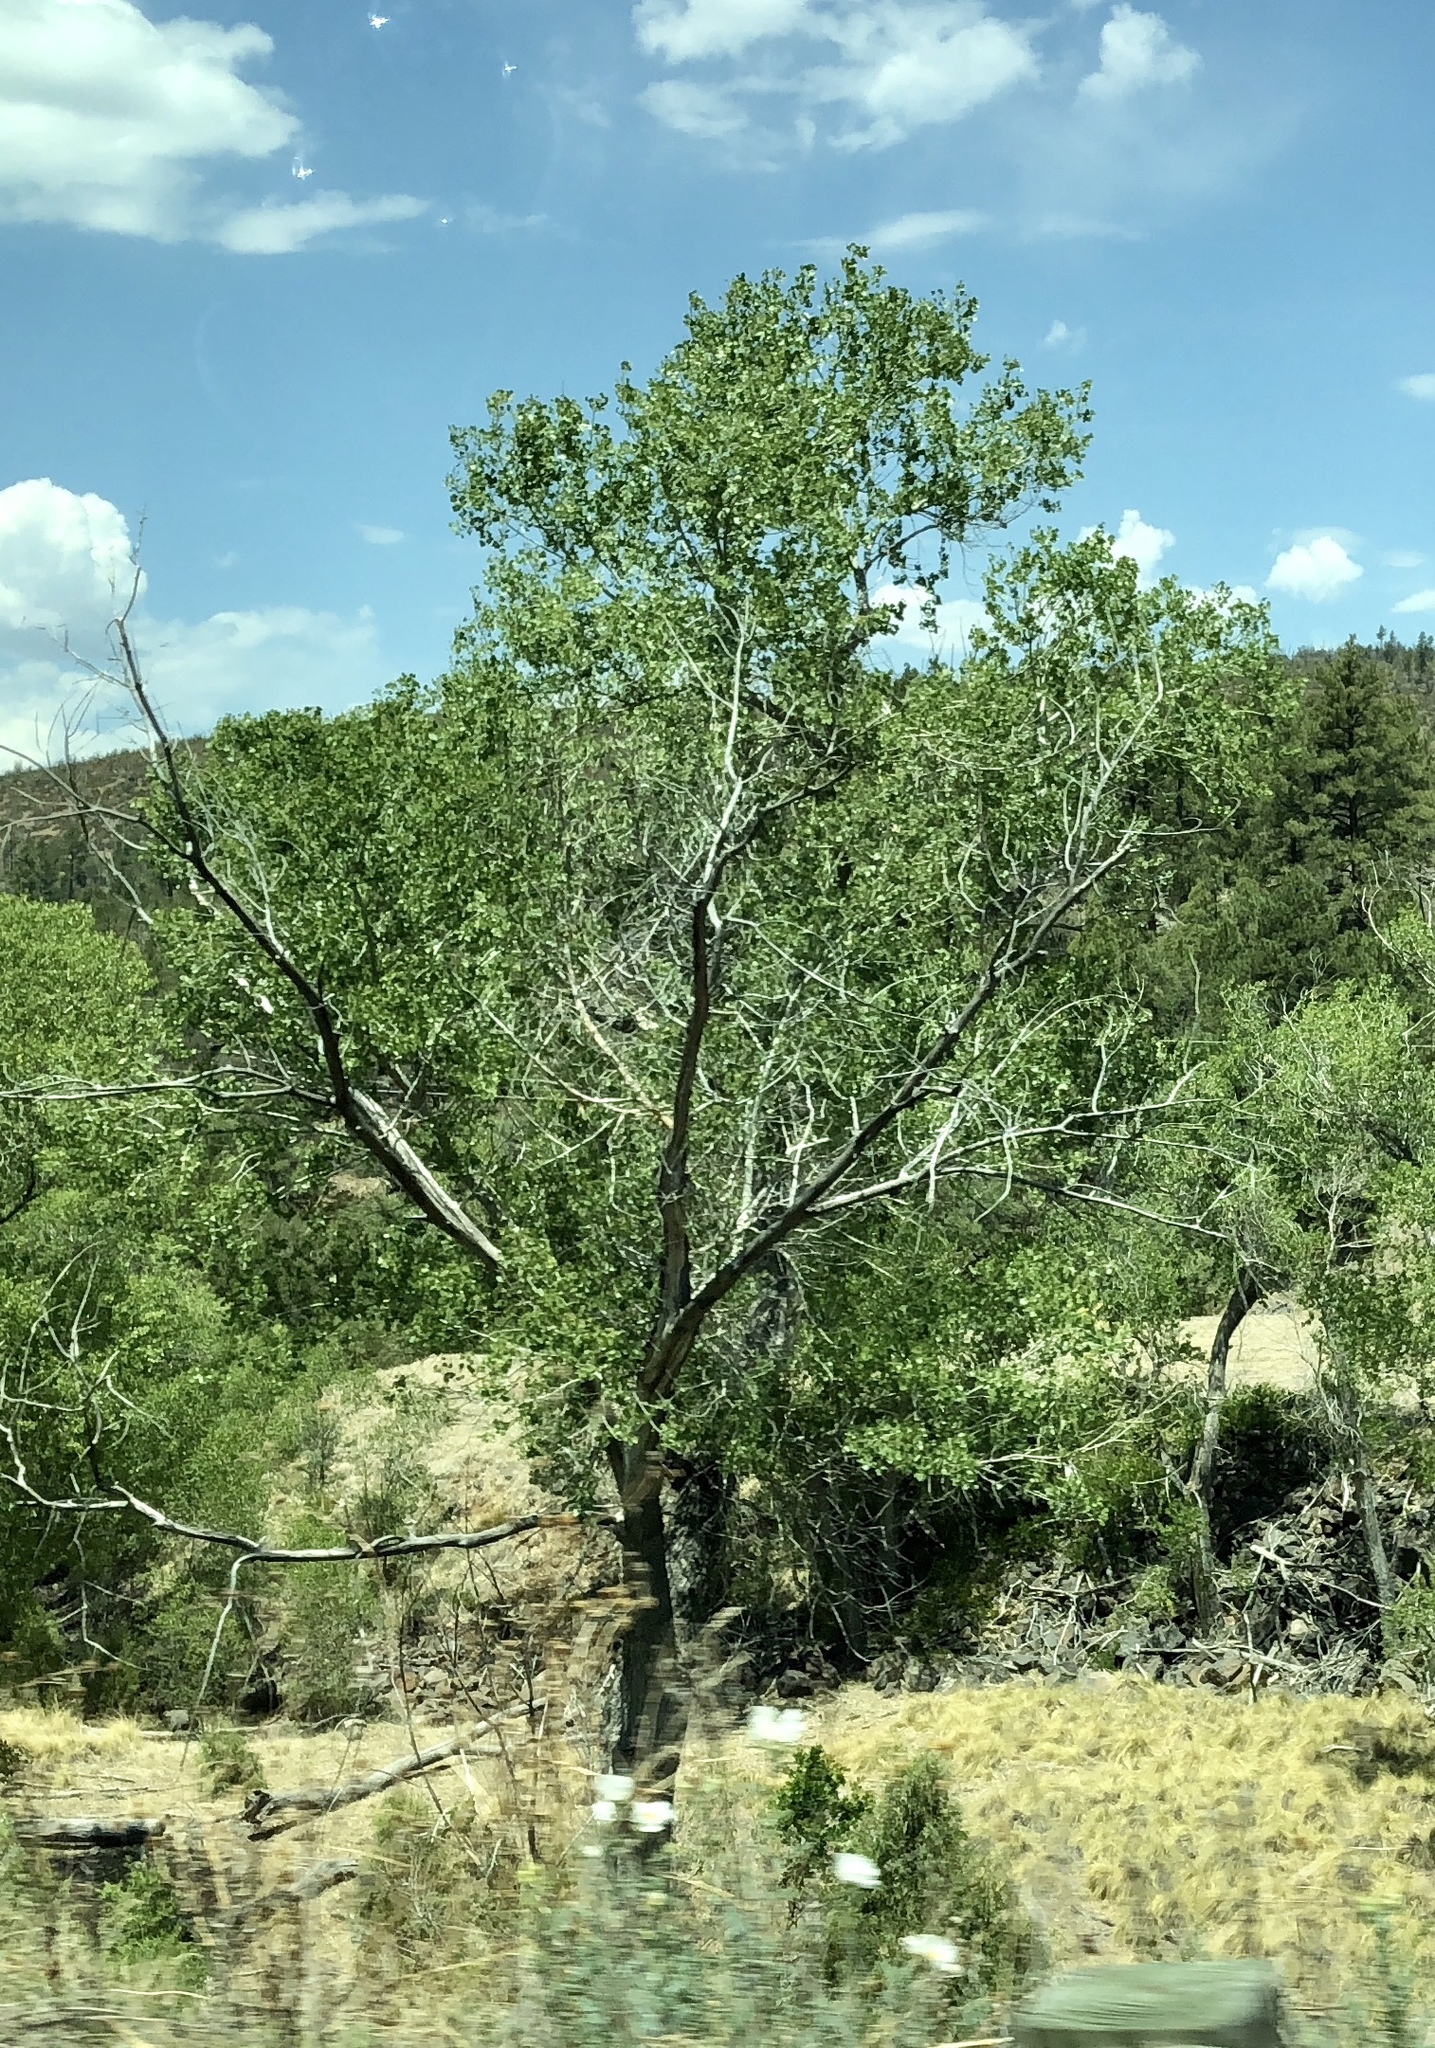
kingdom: Plantae
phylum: Tracheophyta
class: Magnoliopsida
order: Malpighiales
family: Salicaceae
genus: Populus
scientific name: Populus fremontii
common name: Fremont's cottonwood
